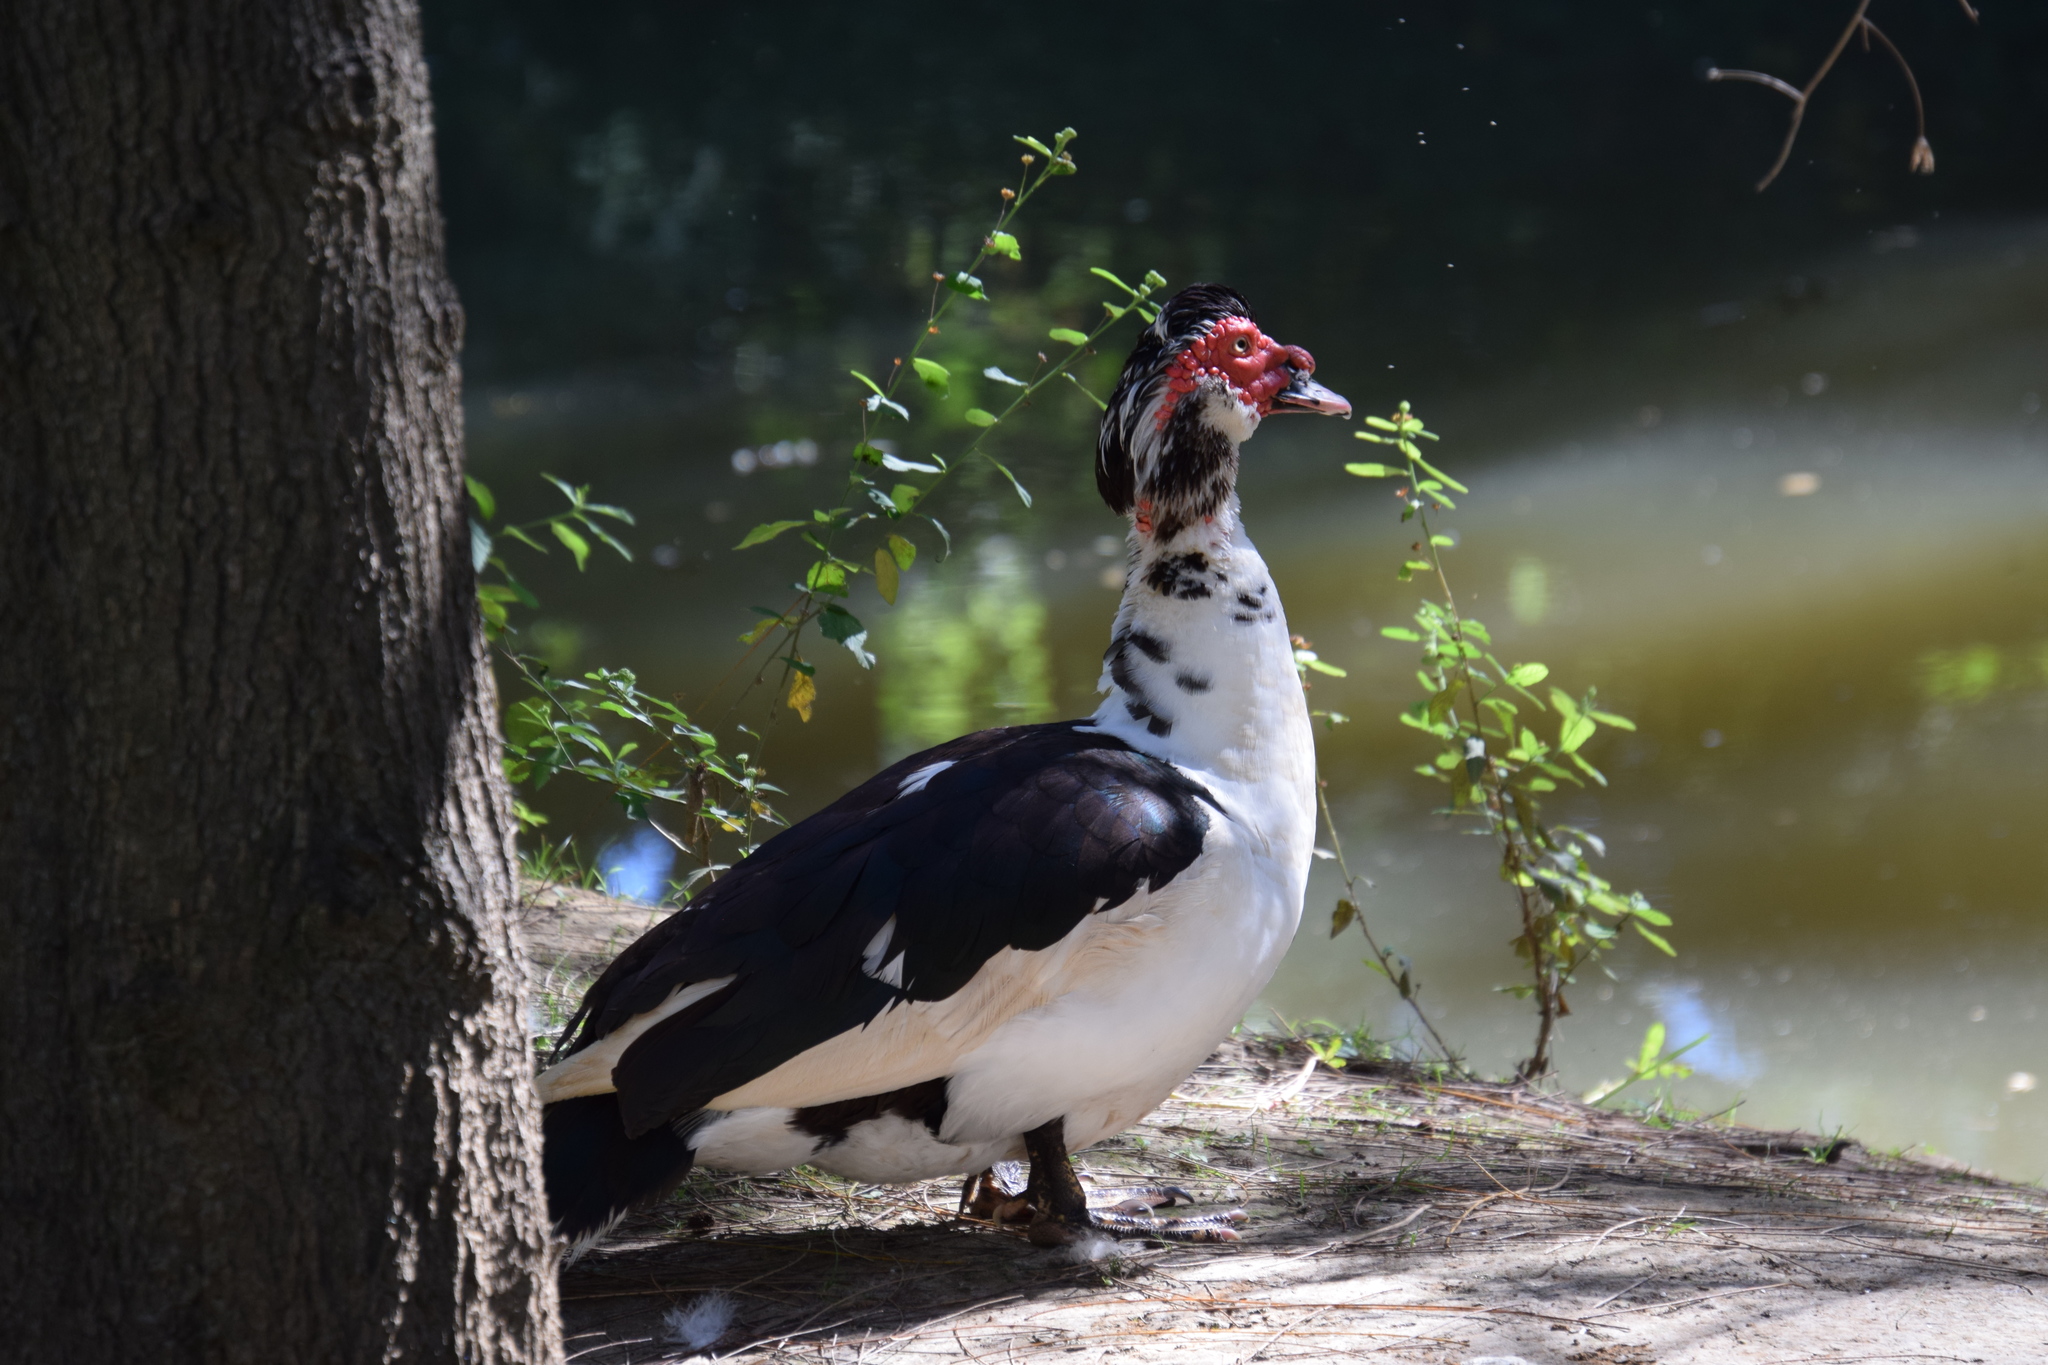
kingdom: Animalia
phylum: Chordata
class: Aves
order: Anseriformes
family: Anatidae
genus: Cairina
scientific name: Cairina moschata
